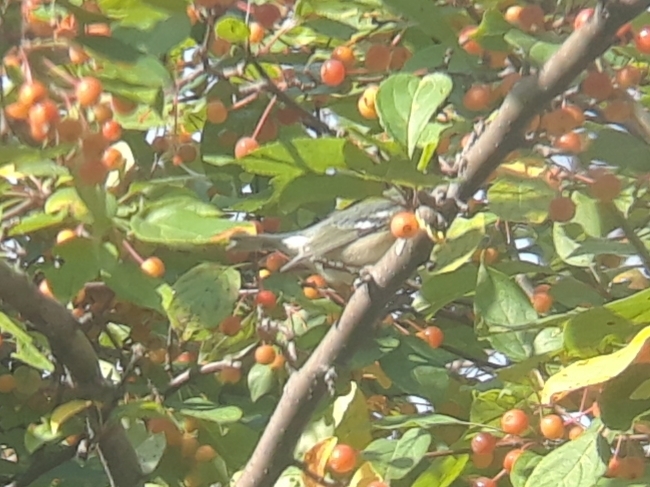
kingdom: Animalia
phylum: Chordata
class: Aves
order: Passeriformes
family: Parulidae
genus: Setophaga
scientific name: Setophaga americana
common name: Northern parula
